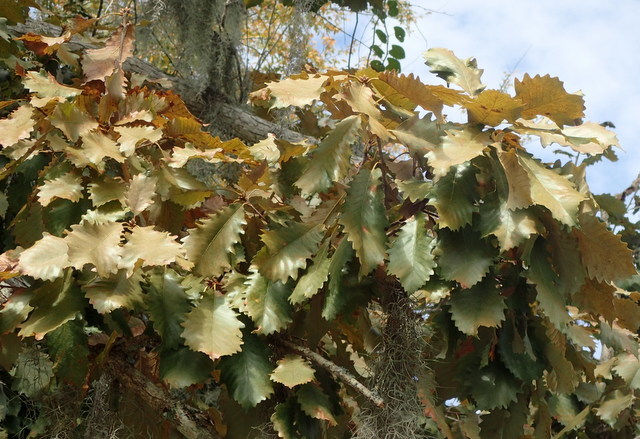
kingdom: Plantae
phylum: Tracheophyta
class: Magnoliopsida
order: Fagales
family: Fagaceae
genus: Quercus
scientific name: Quercus michauxii
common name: Swamp chestnut oak
